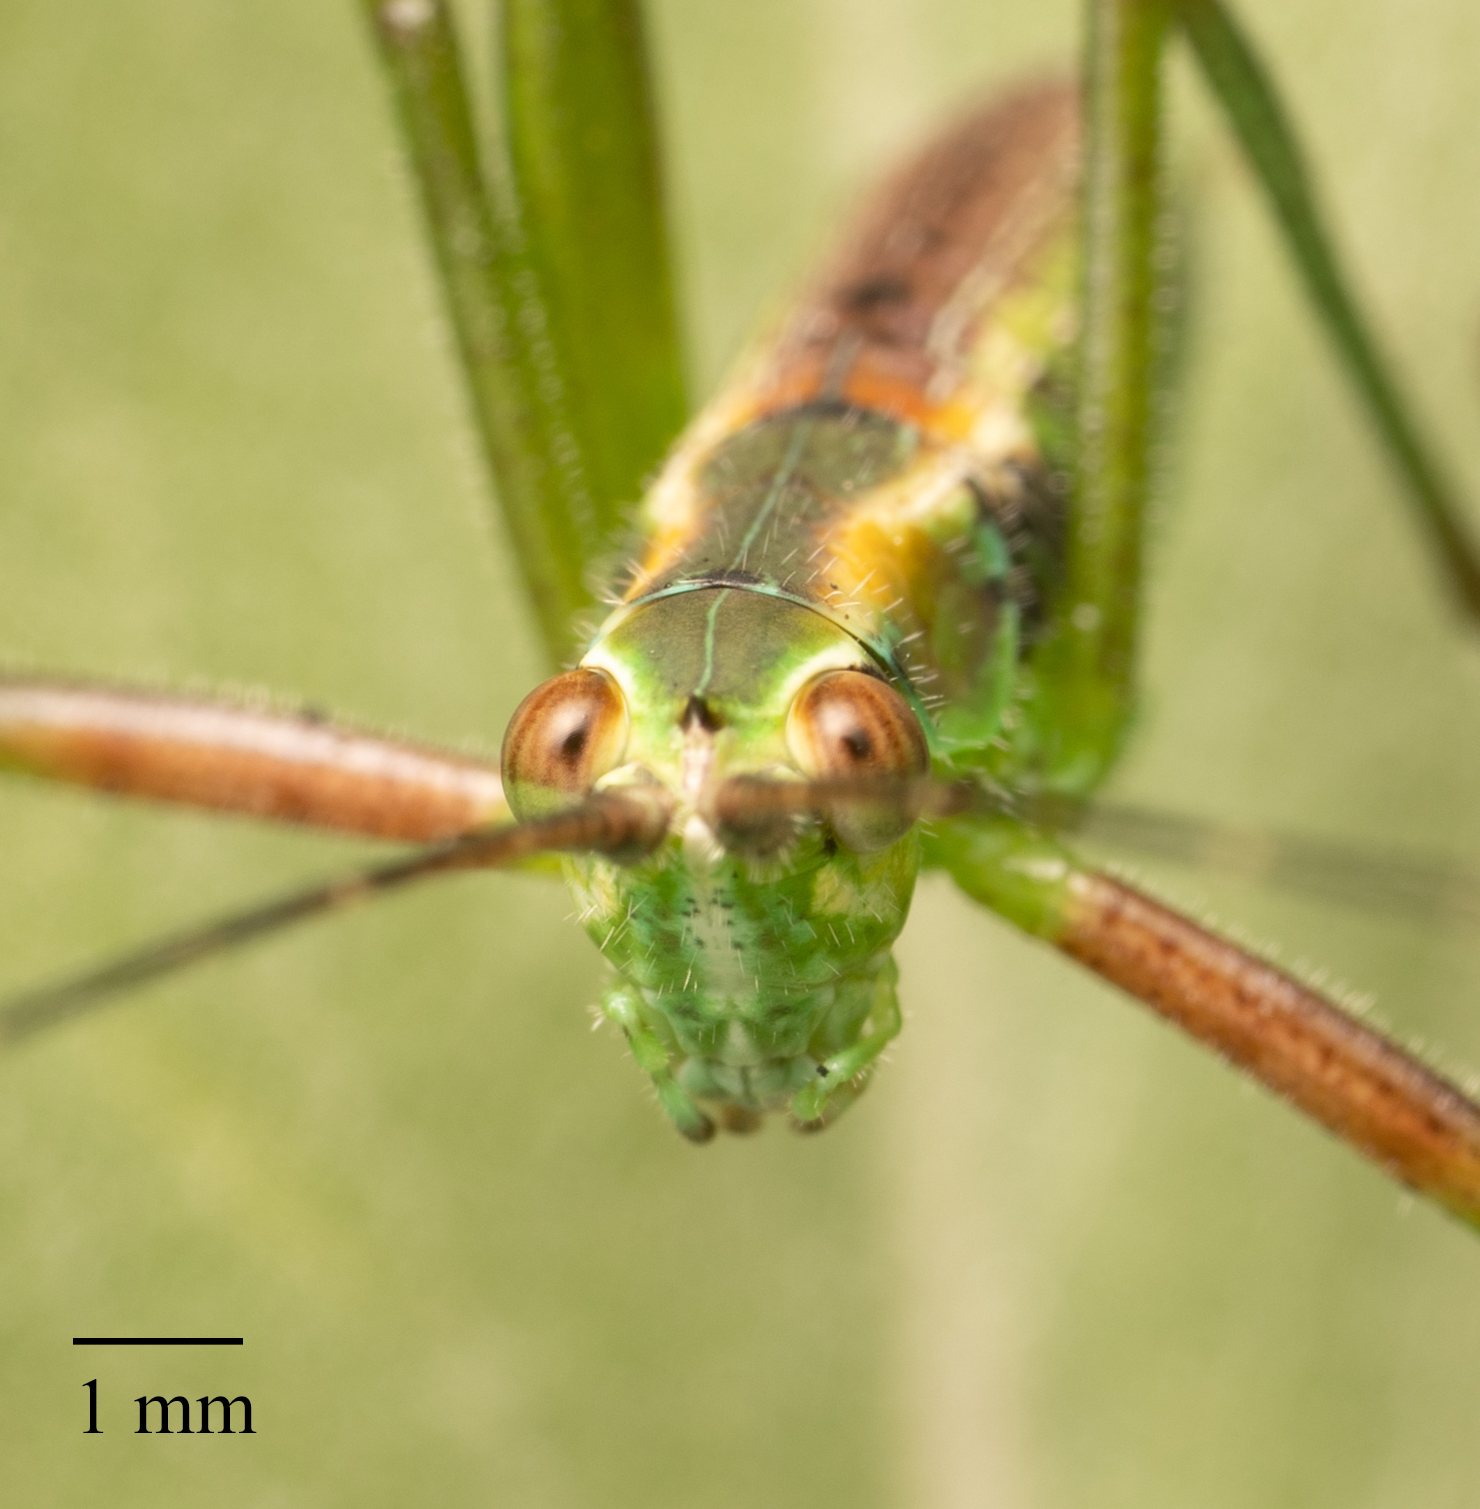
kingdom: Animalia
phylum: Arthropoda
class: Insecta
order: Orthoptera
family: Tettigoniidae
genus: Scudderia
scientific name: Scudderia
